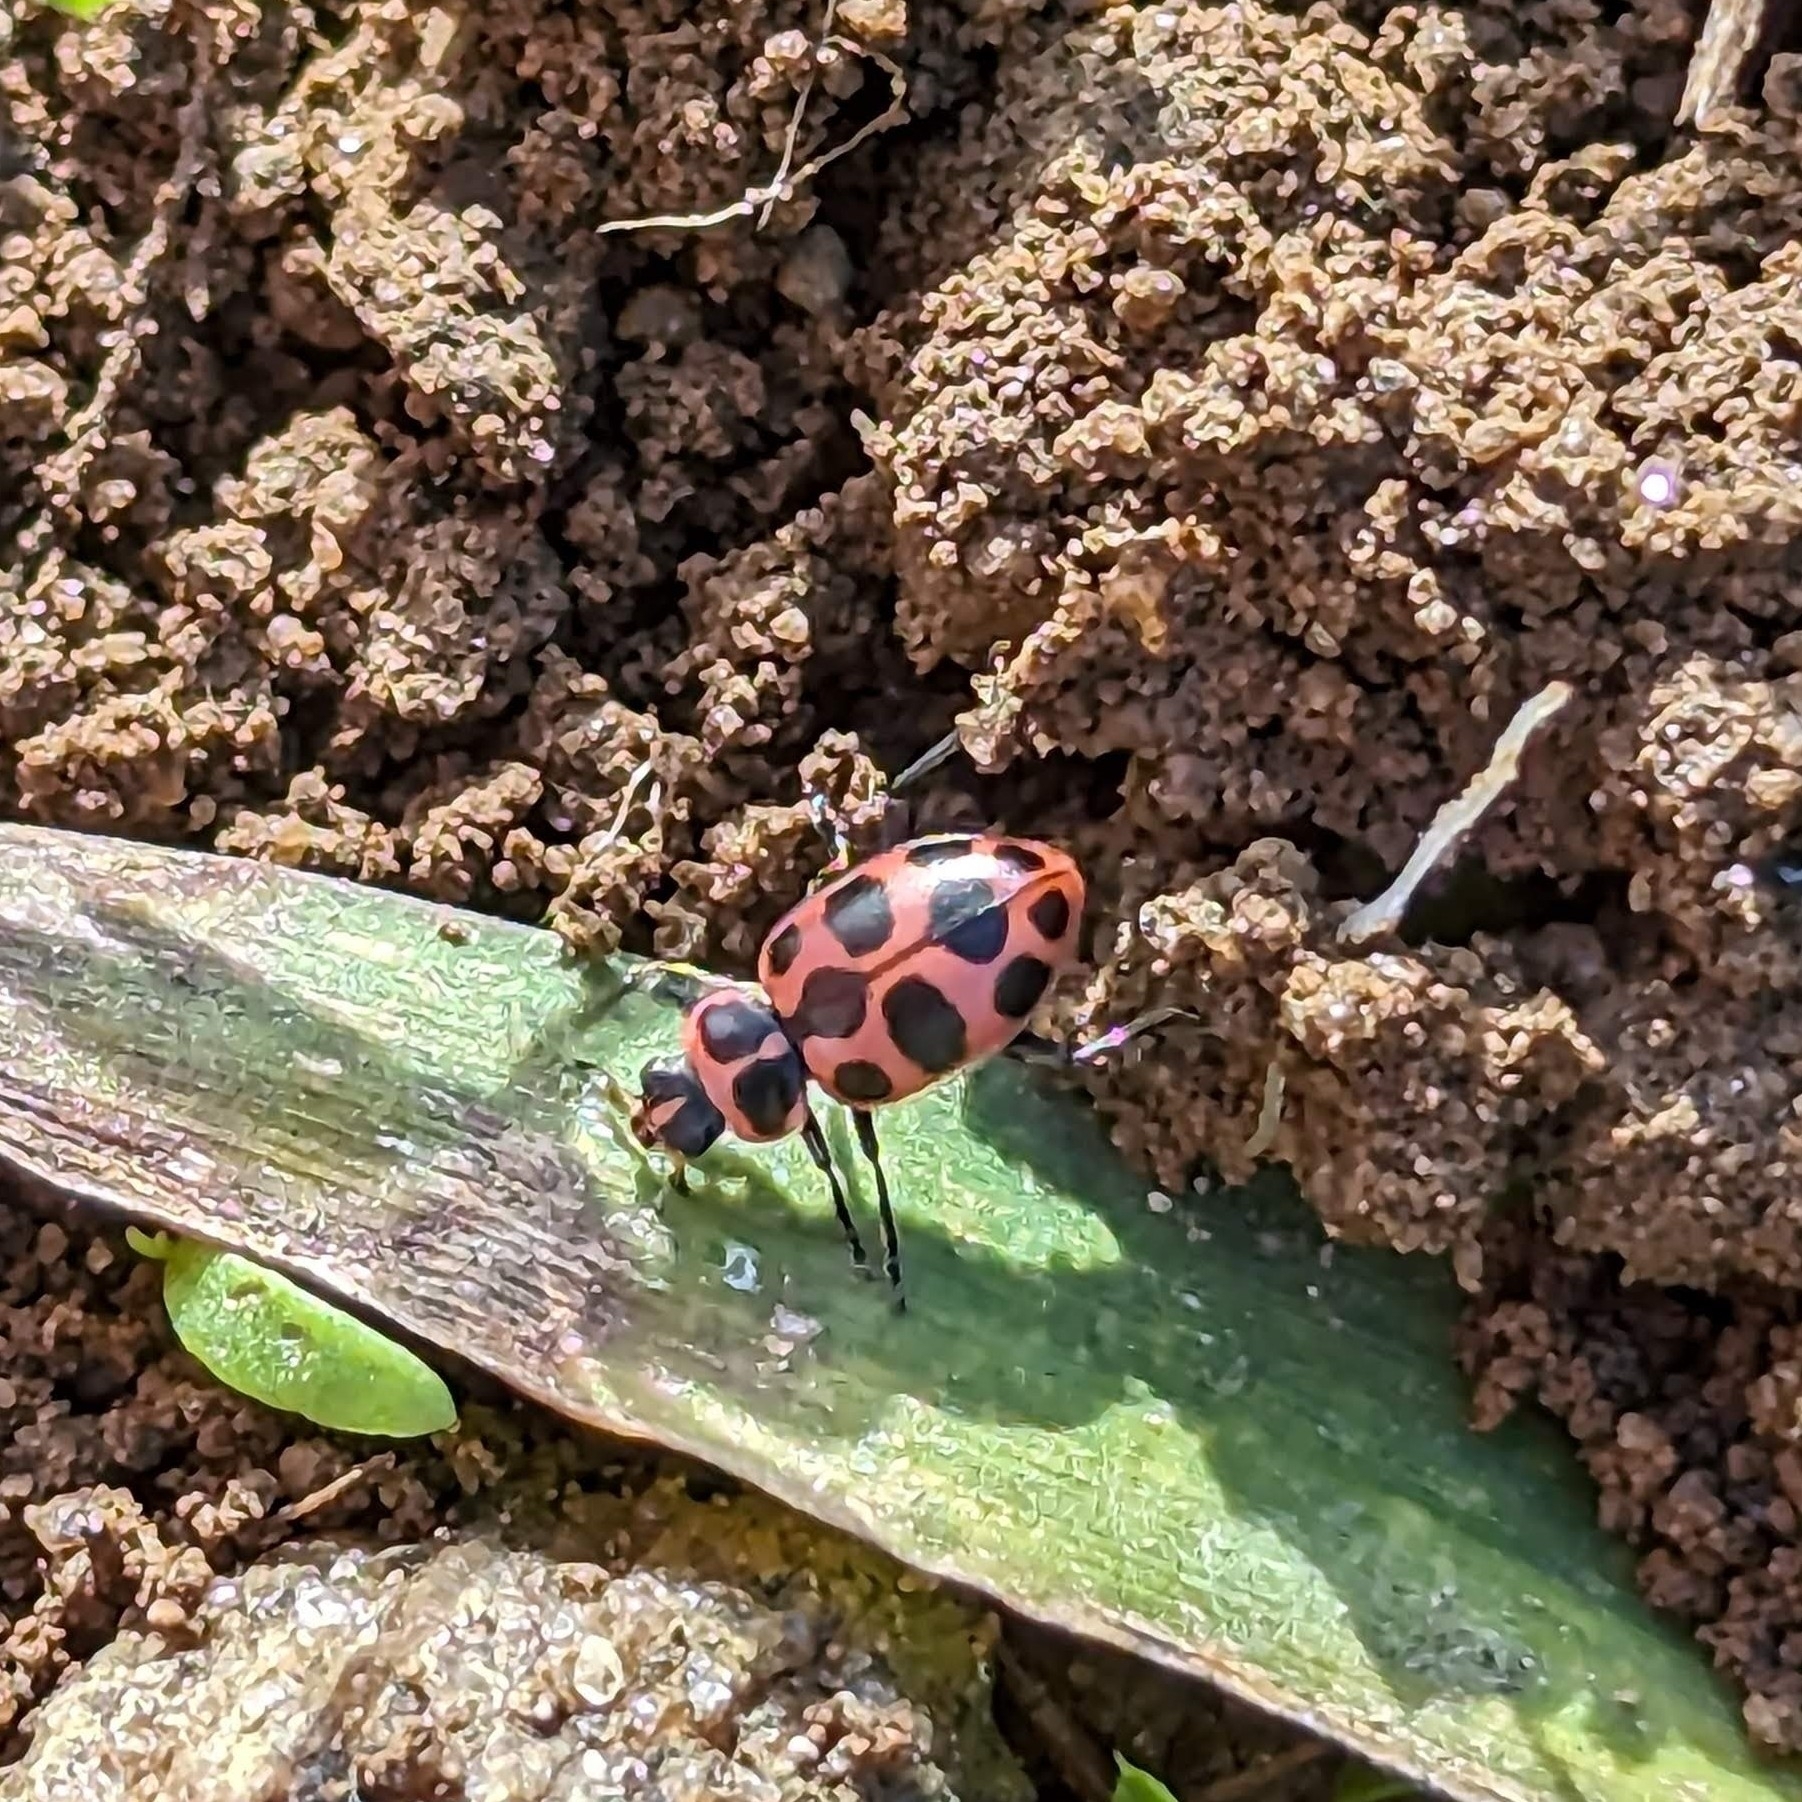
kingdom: Animalia
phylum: Arthropoda
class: Insecta
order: Coleoptera
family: Coccinellidae
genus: Coleomegilla
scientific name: Coleomegilla maculata
